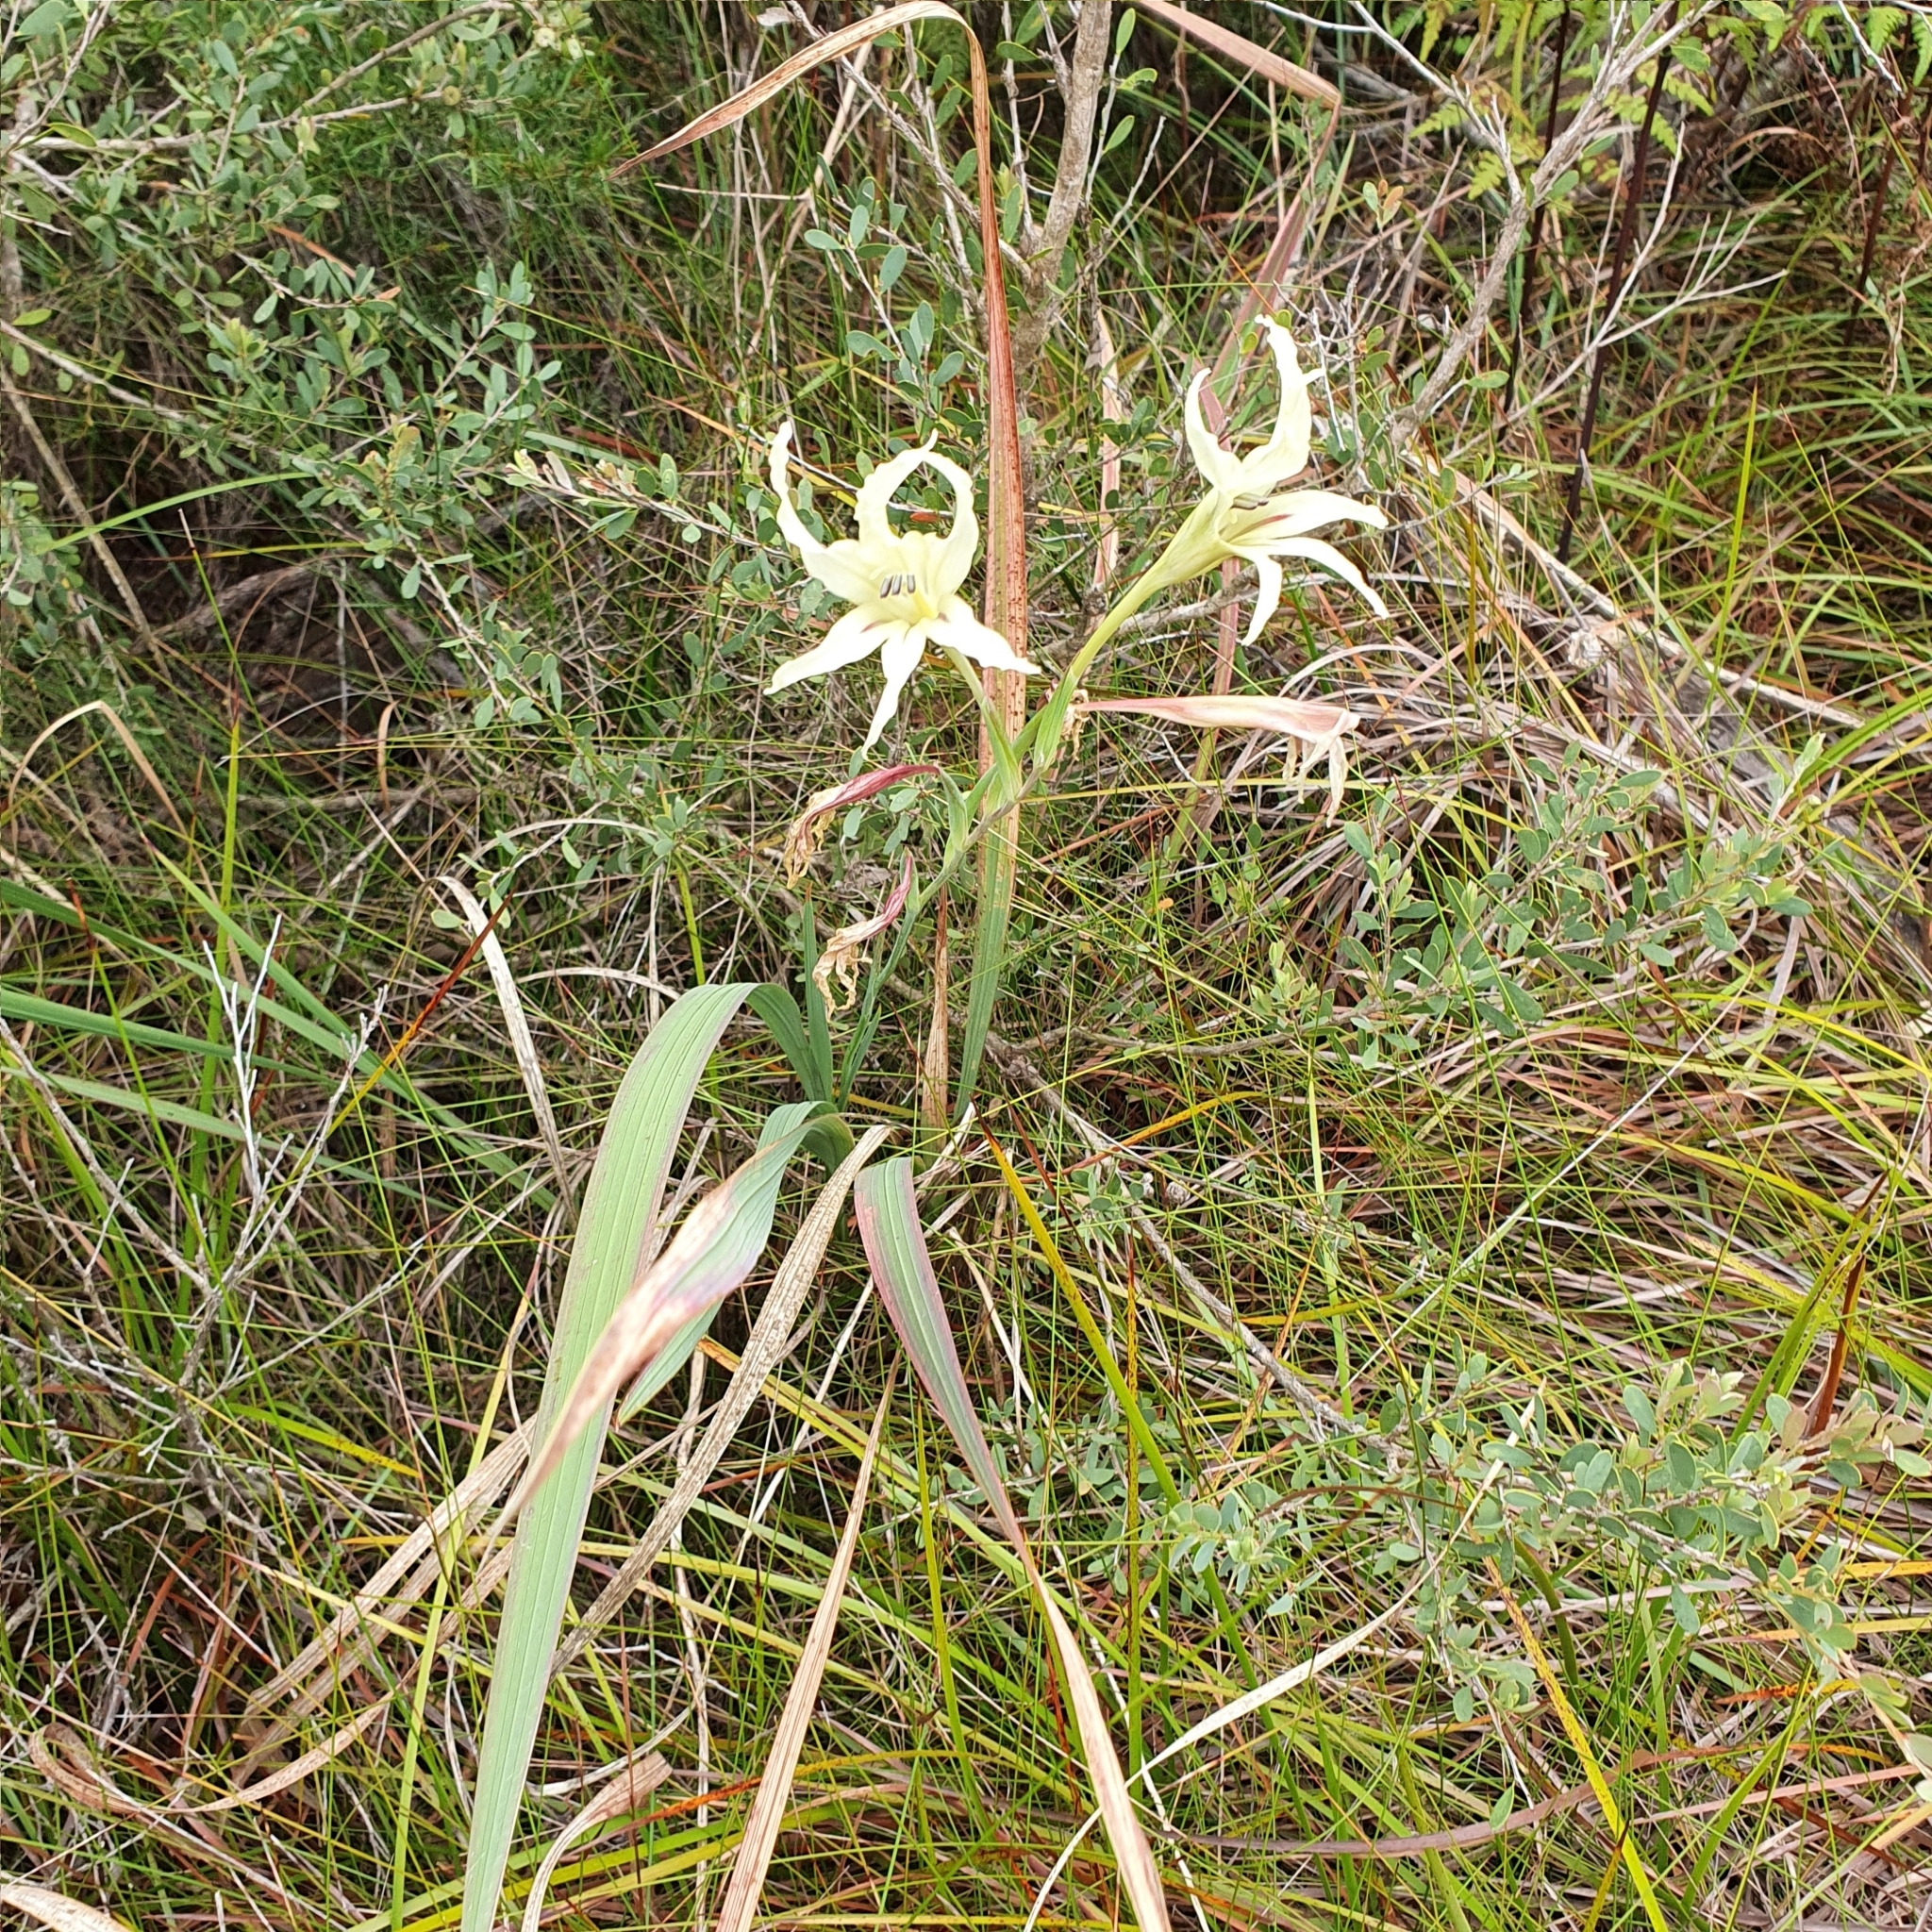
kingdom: Plantae
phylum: Tracheophyta
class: Liliopsida
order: Asparagales
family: Iridaceae
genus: Gladiolus
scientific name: Gladiolus undulatus
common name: Large painted-lady
